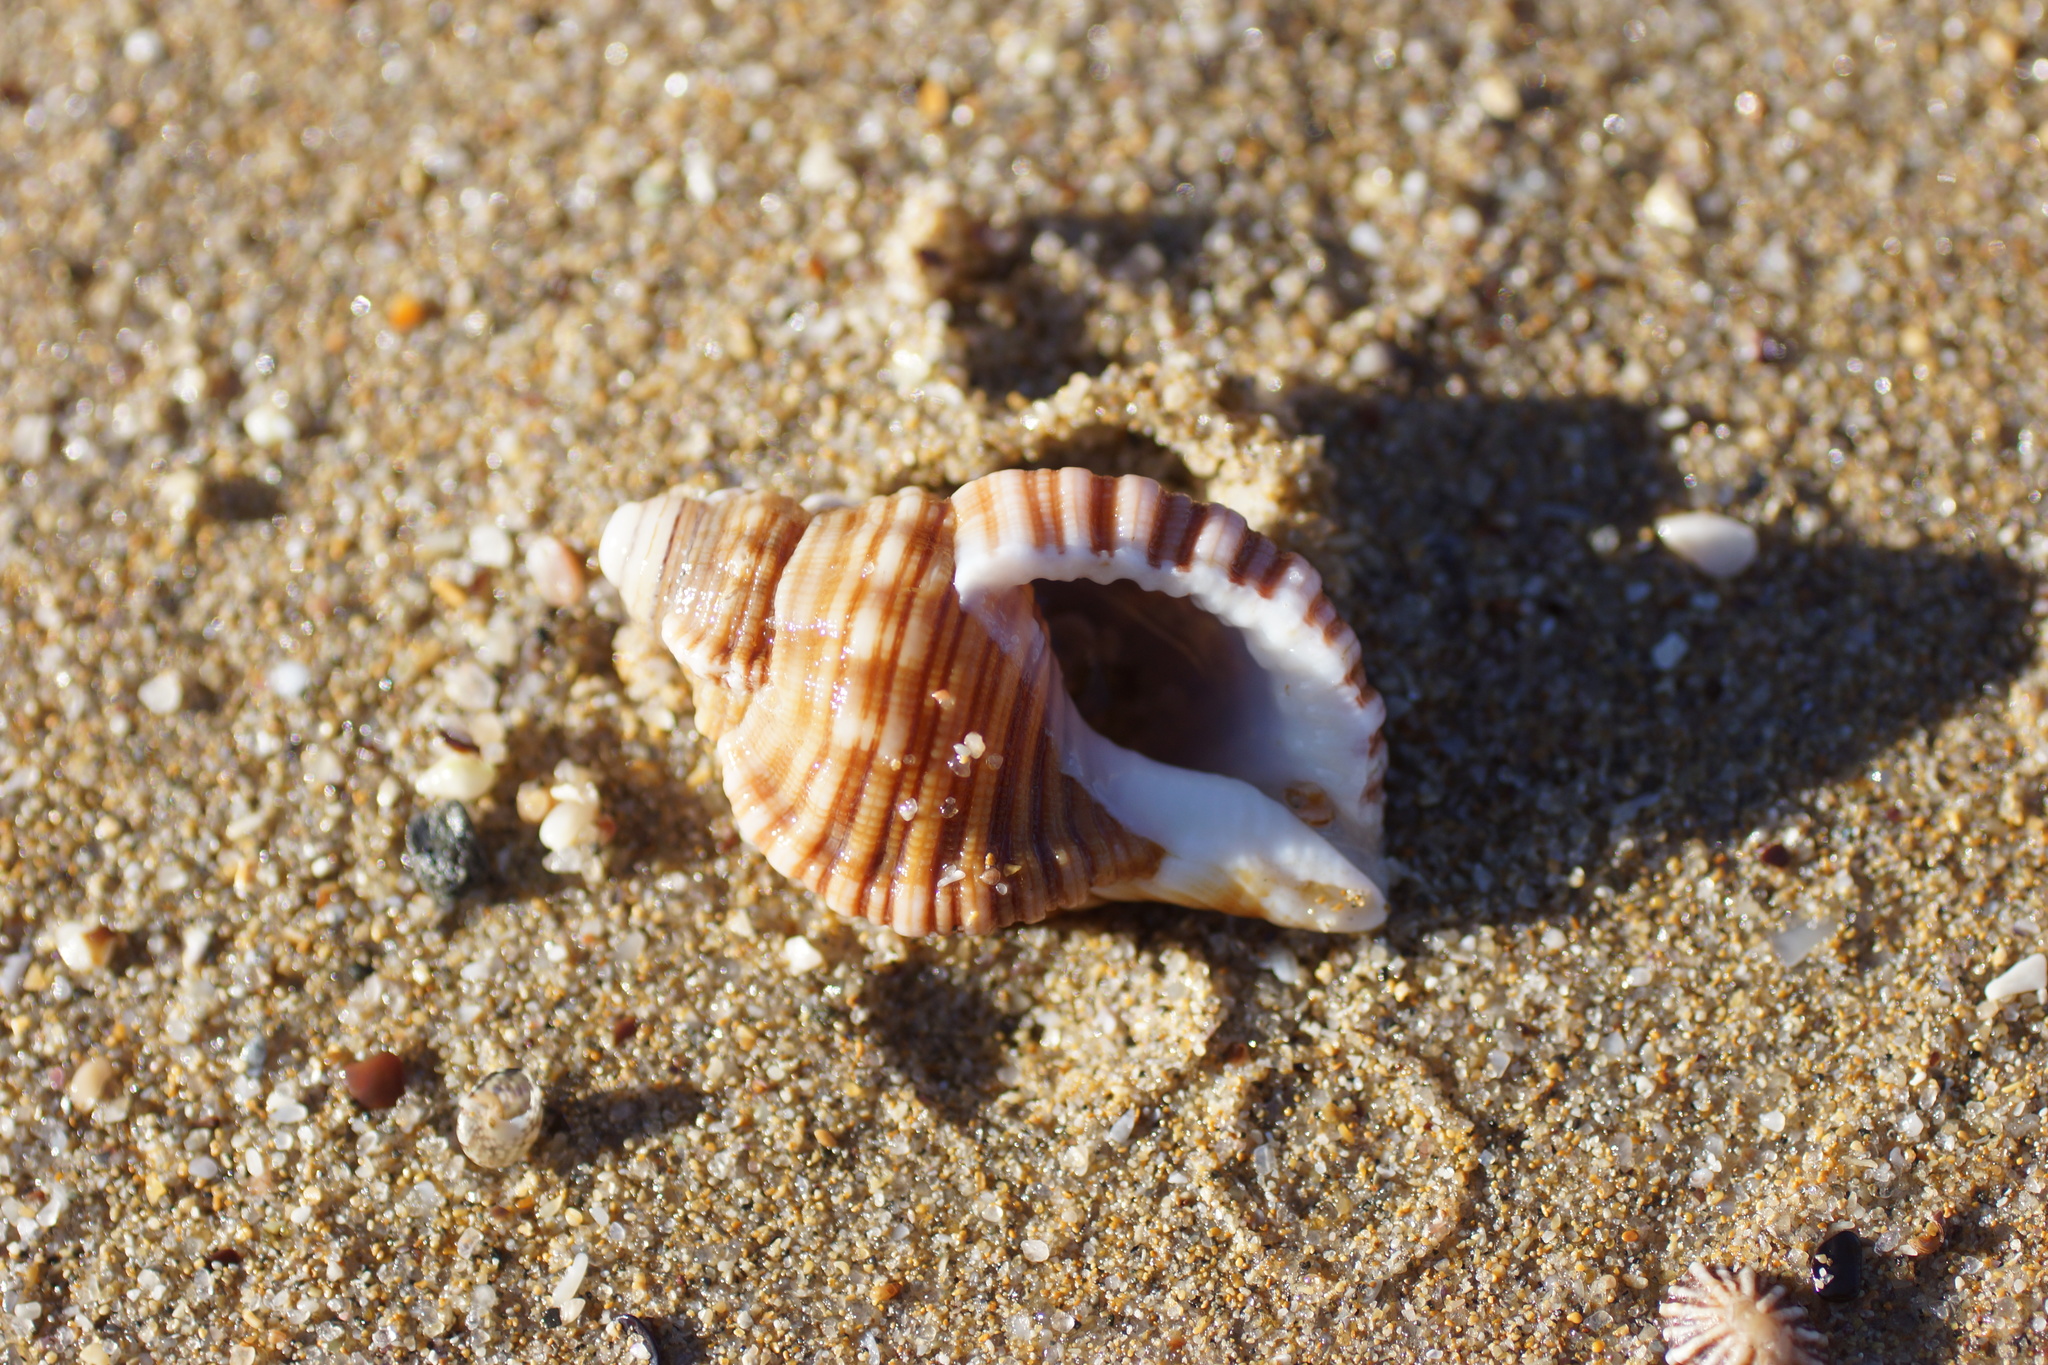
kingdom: Animalia
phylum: Mollusca
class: Gastropoda
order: Littorinimorpha
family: Cymatiidae
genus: Cabestana
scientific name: Cabestana spengleri
